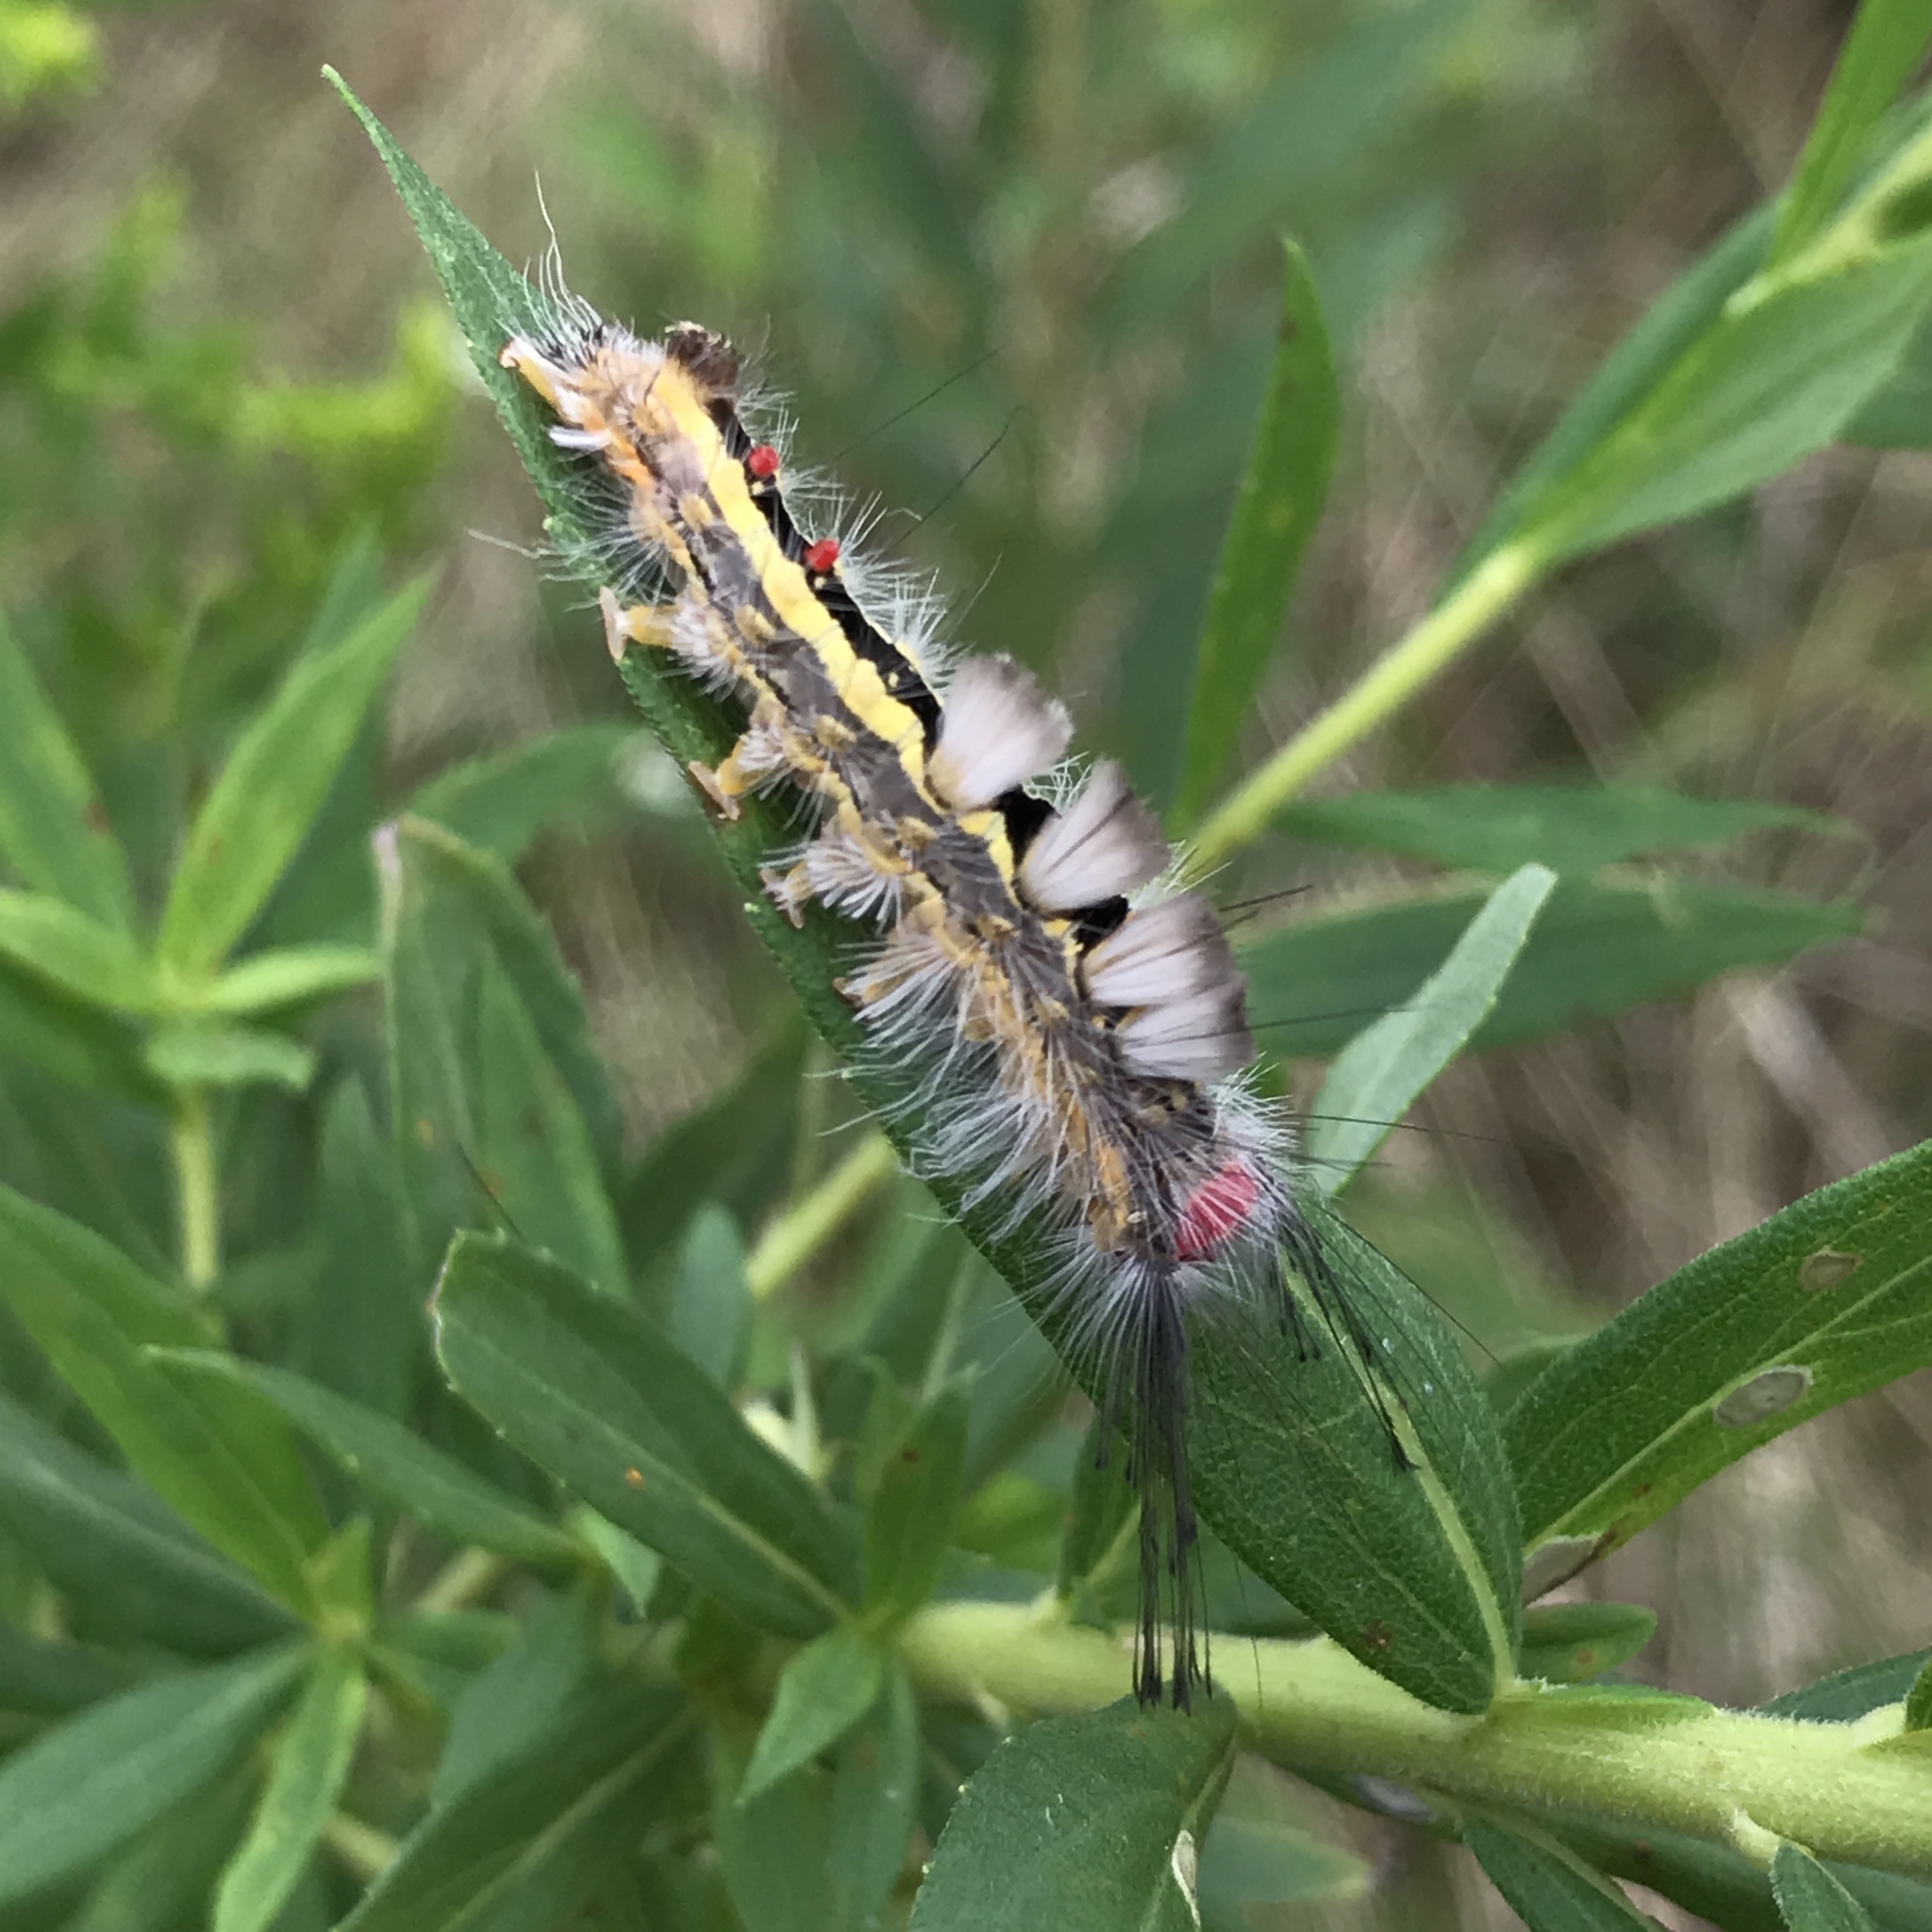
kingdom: Animalia
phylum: Arthropoda
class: Insecta
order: Lepidoptera
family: Erebidae
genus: Orgyia
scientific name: Orgyia leucostigma
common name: White-marked tussock moth
